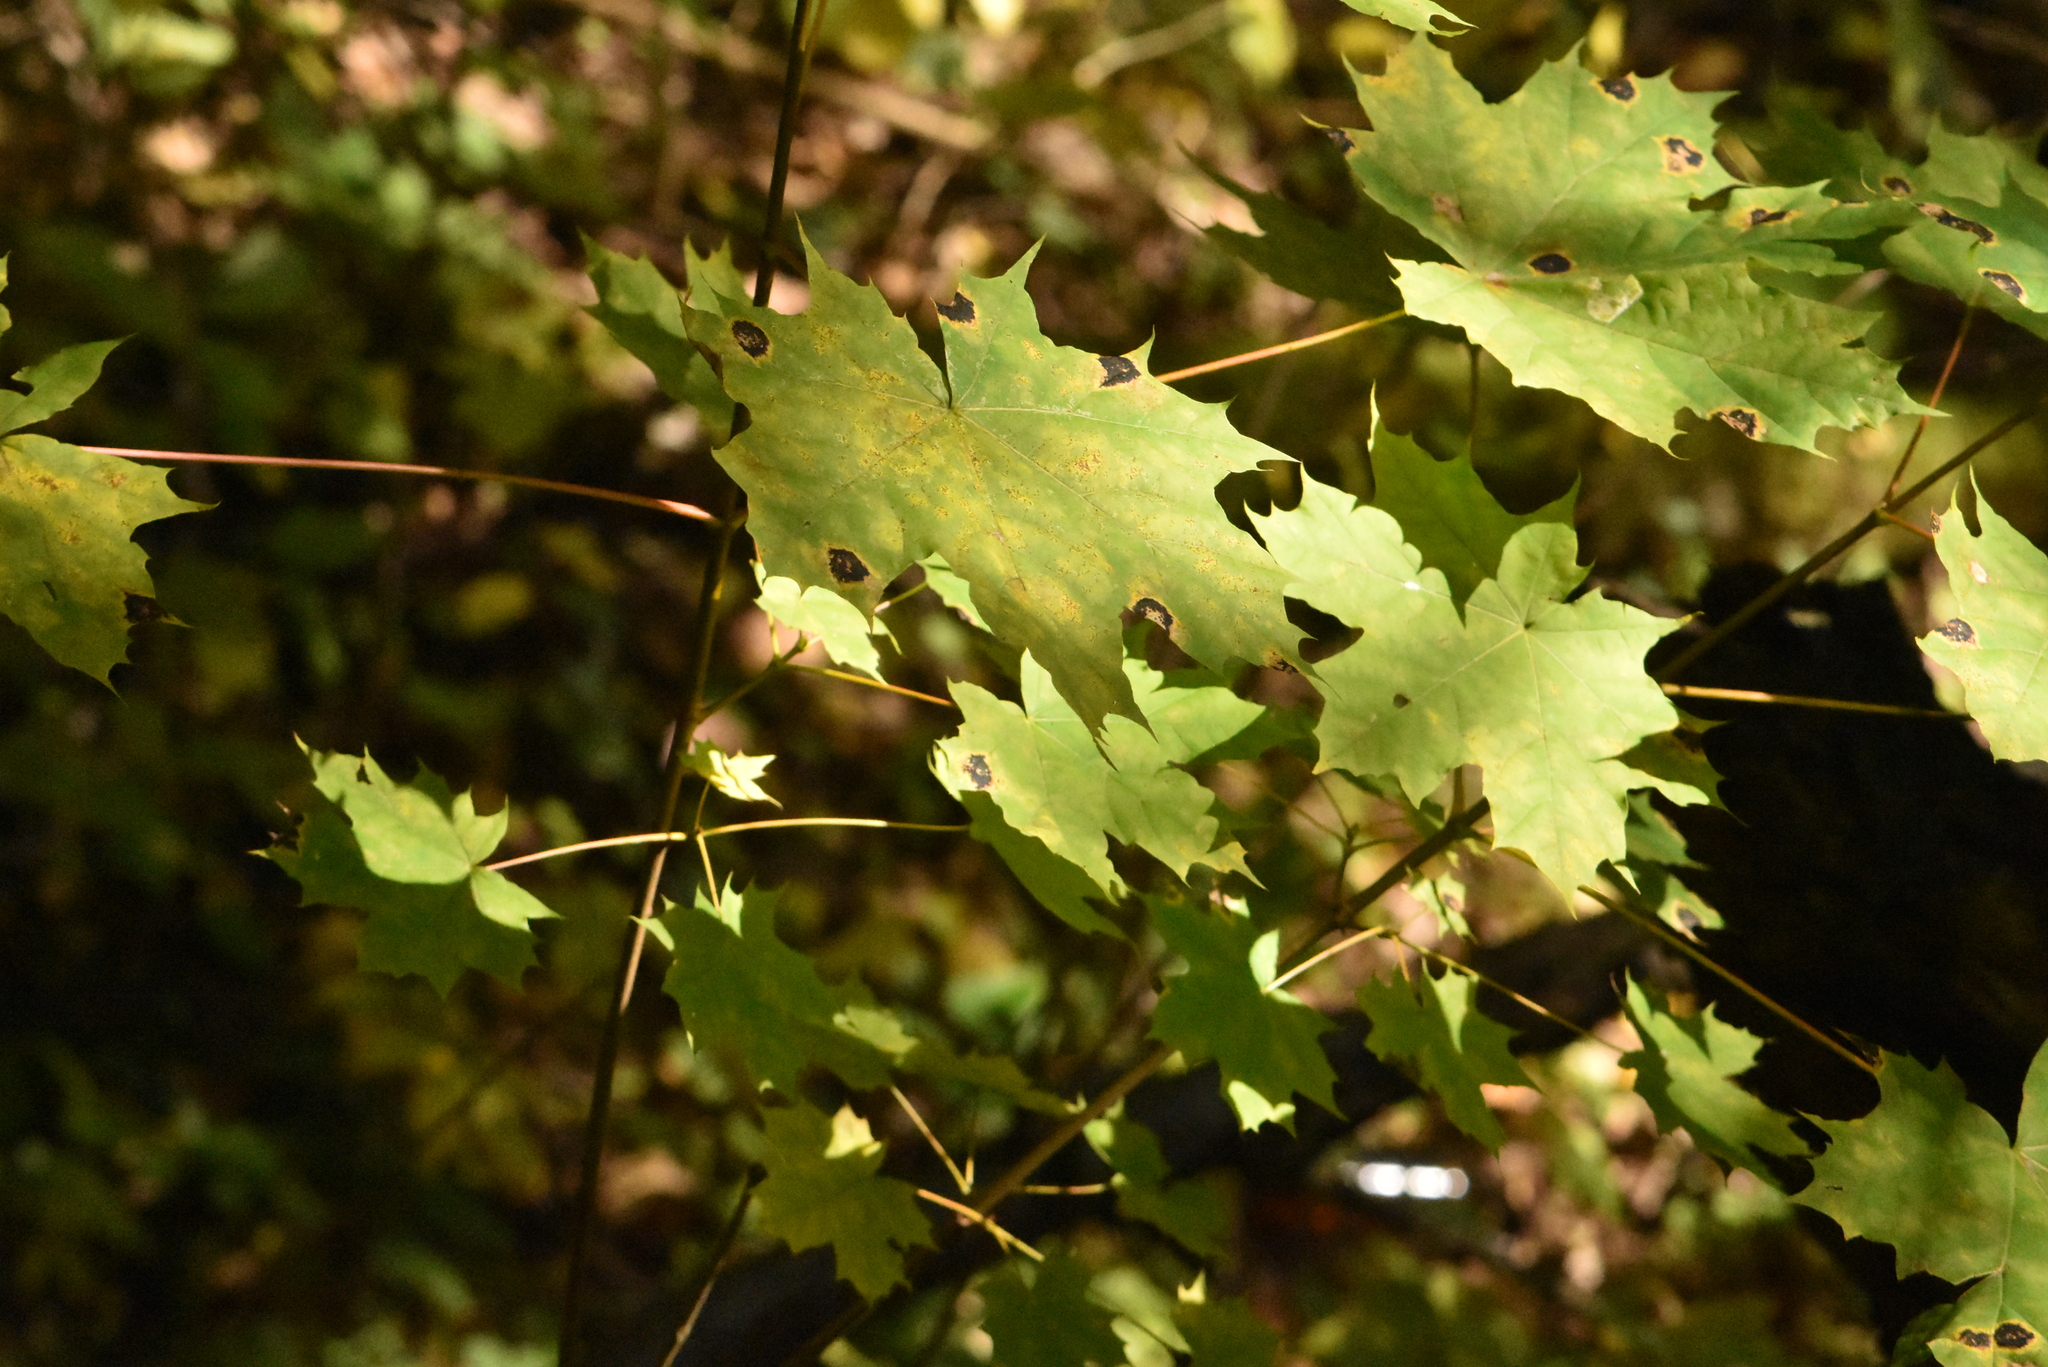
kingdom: Plantae
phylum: Tracheophyta
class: Magnoliopsida
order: Sapindales
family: Sapindaceae
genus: Acer
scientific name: Acer platanoides
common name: Norway maple
